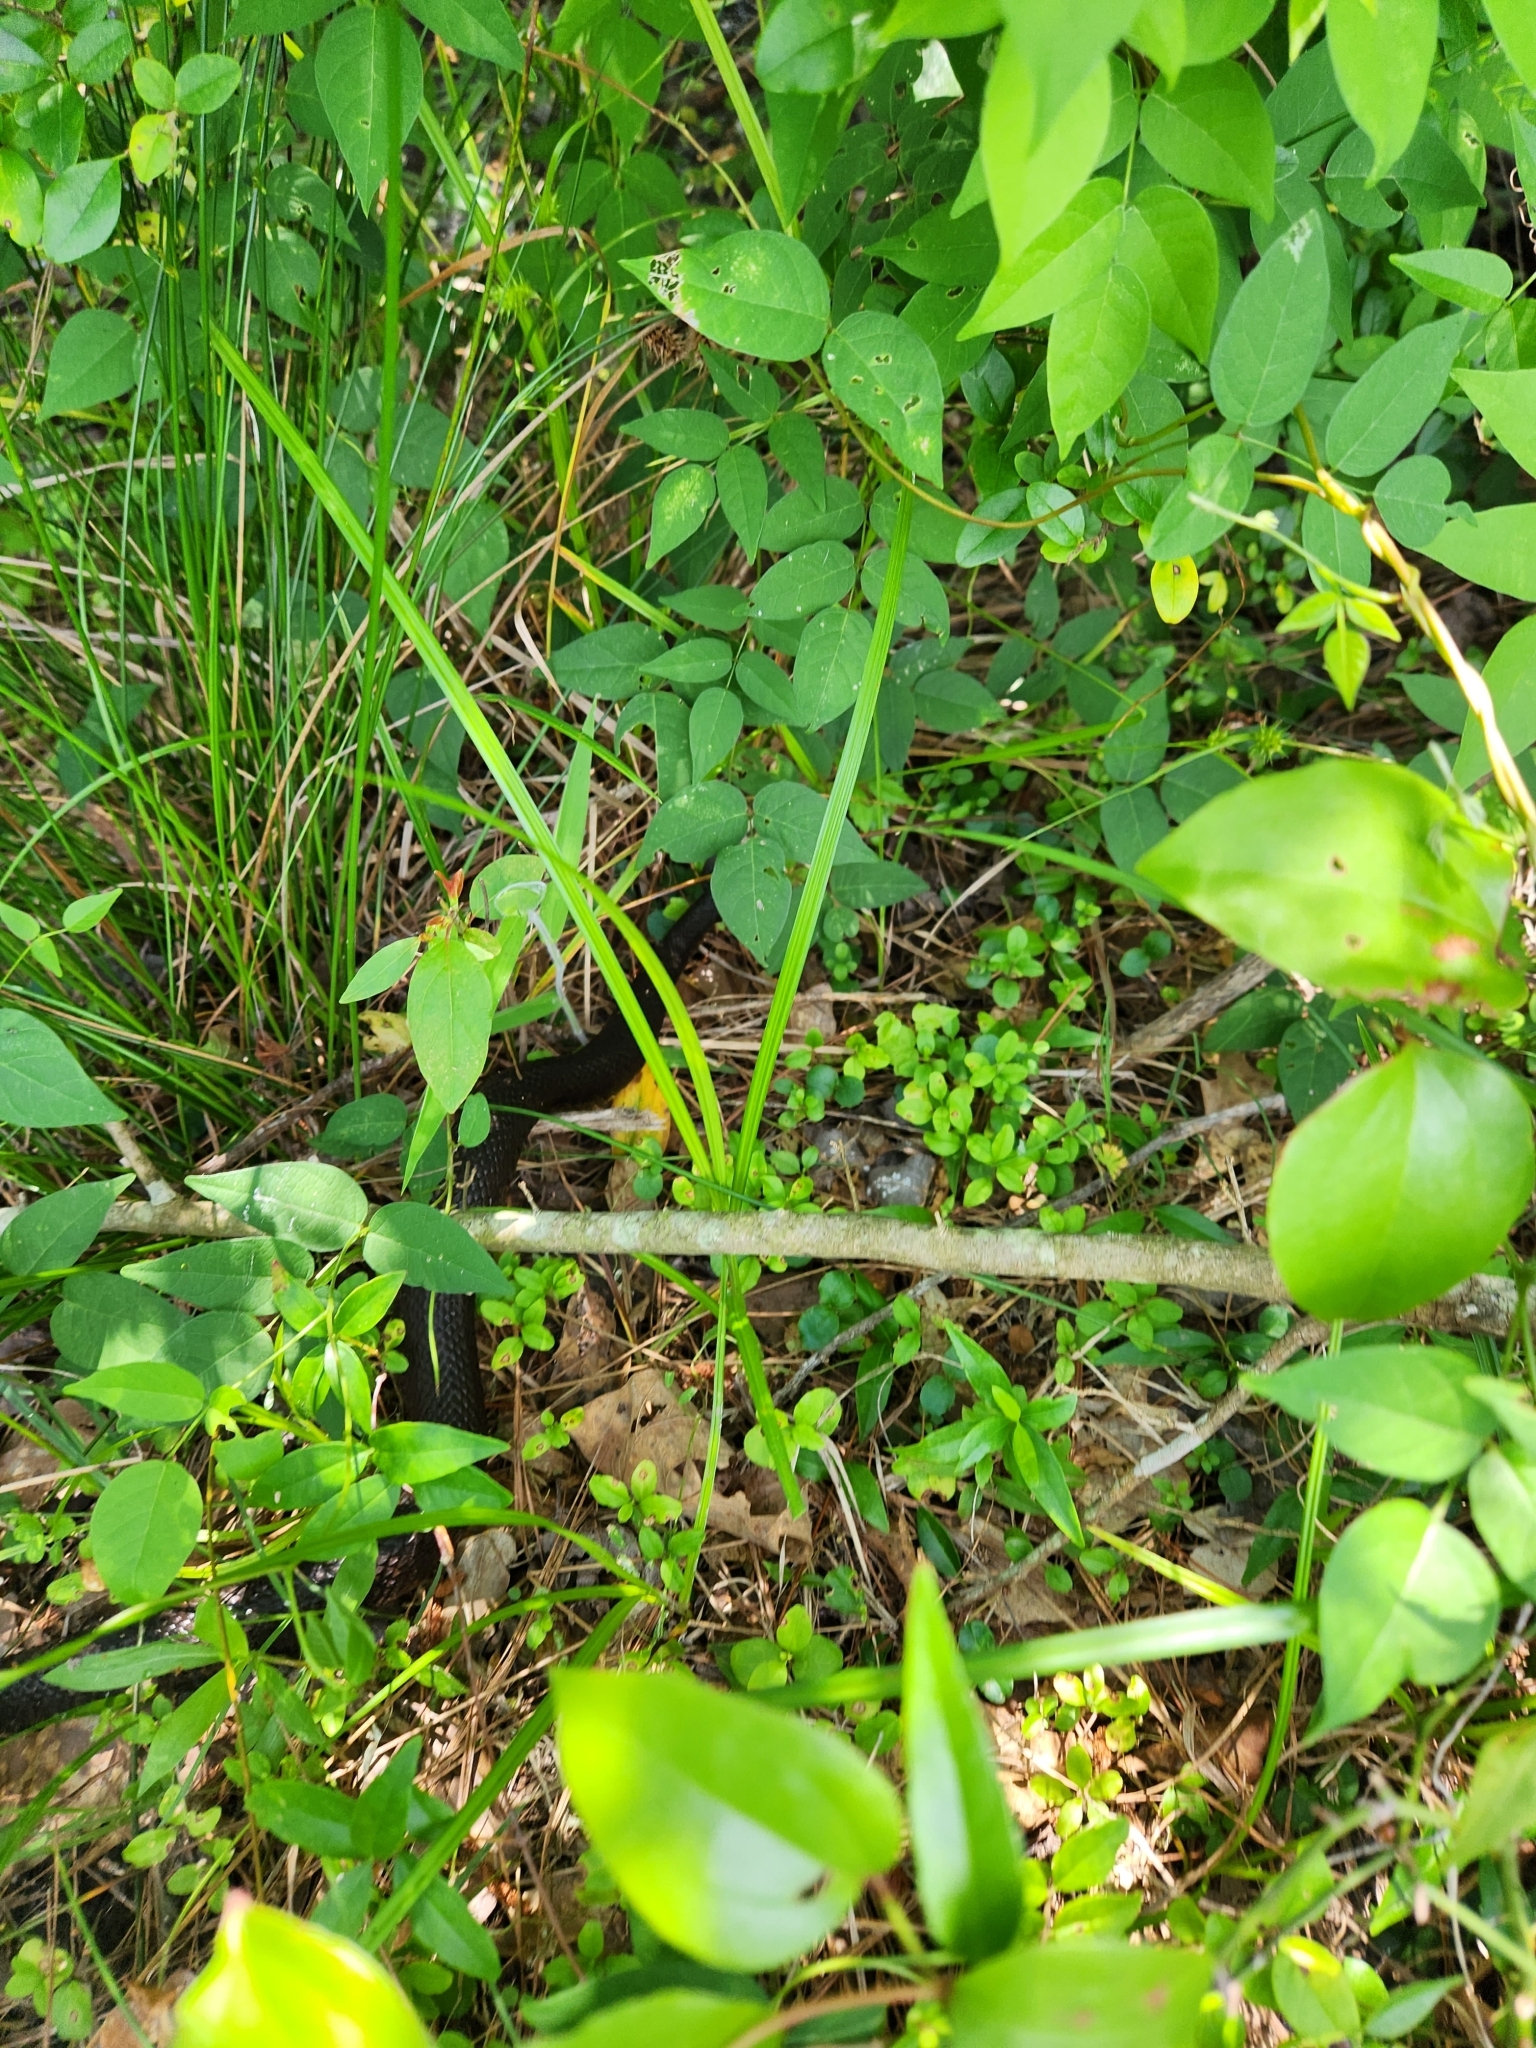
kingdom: Animalia
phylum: Chordata
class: Squamata
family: Viperidae
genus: Agkistrodon
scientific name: Agkistrodon piscivorus
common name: Cottonmouth
